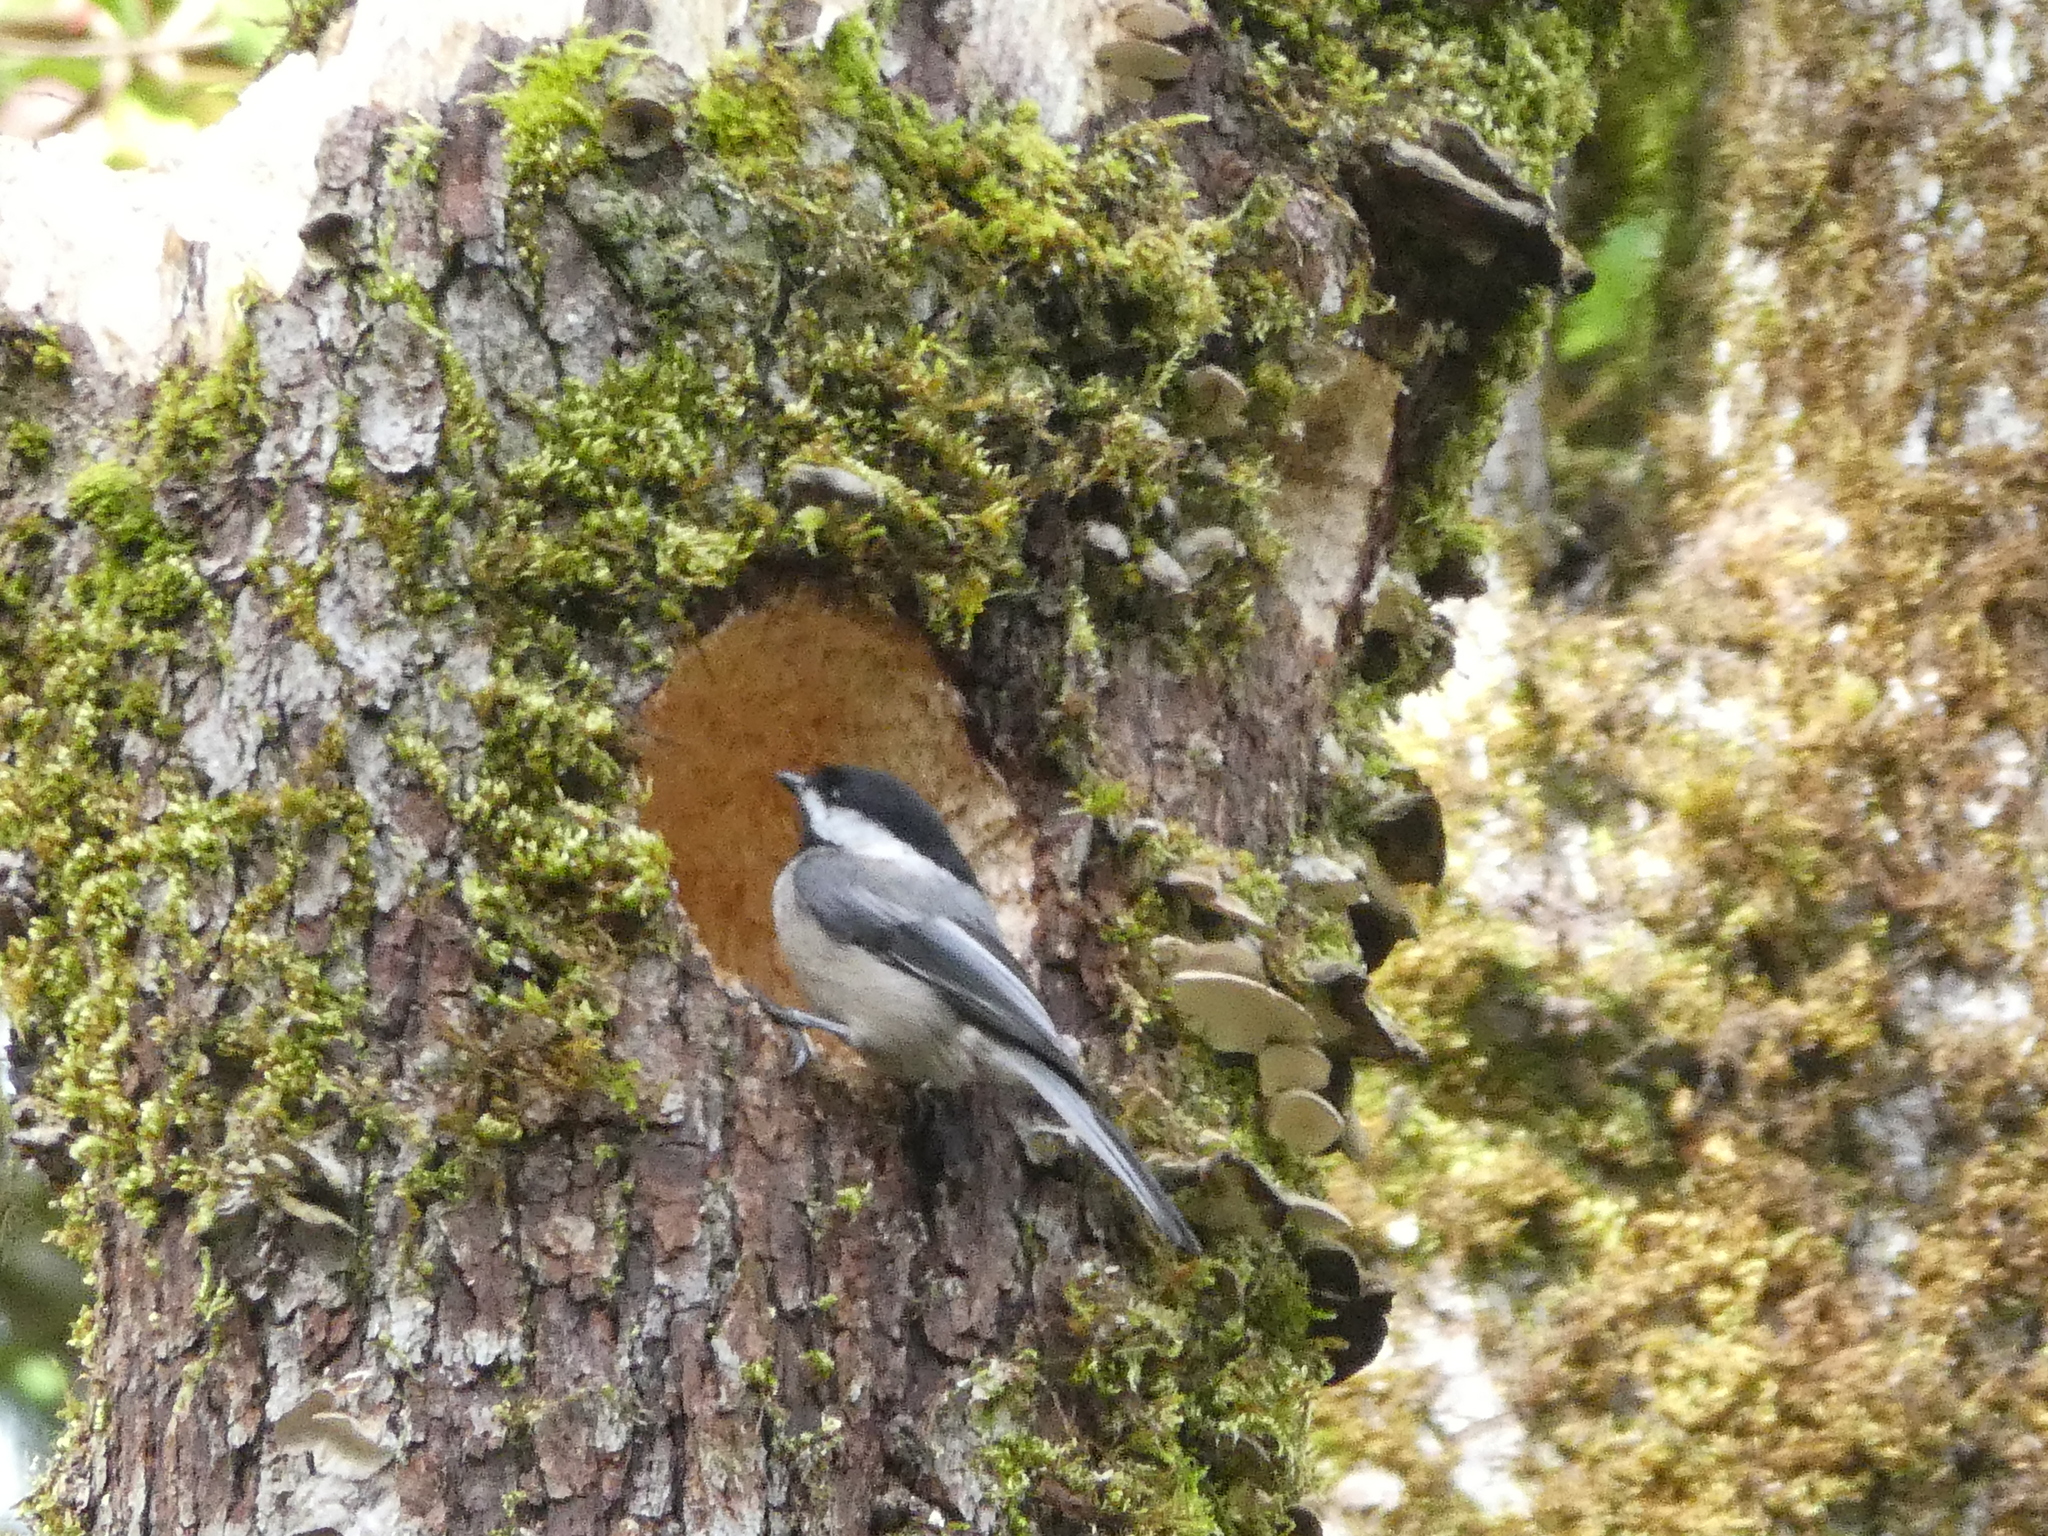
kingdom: Animalia
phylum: Chordata
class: Aves
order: Passeriformes
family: Paridae
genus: Poecile
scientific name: Poecile atricapillus
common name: Black-capped chickadee
